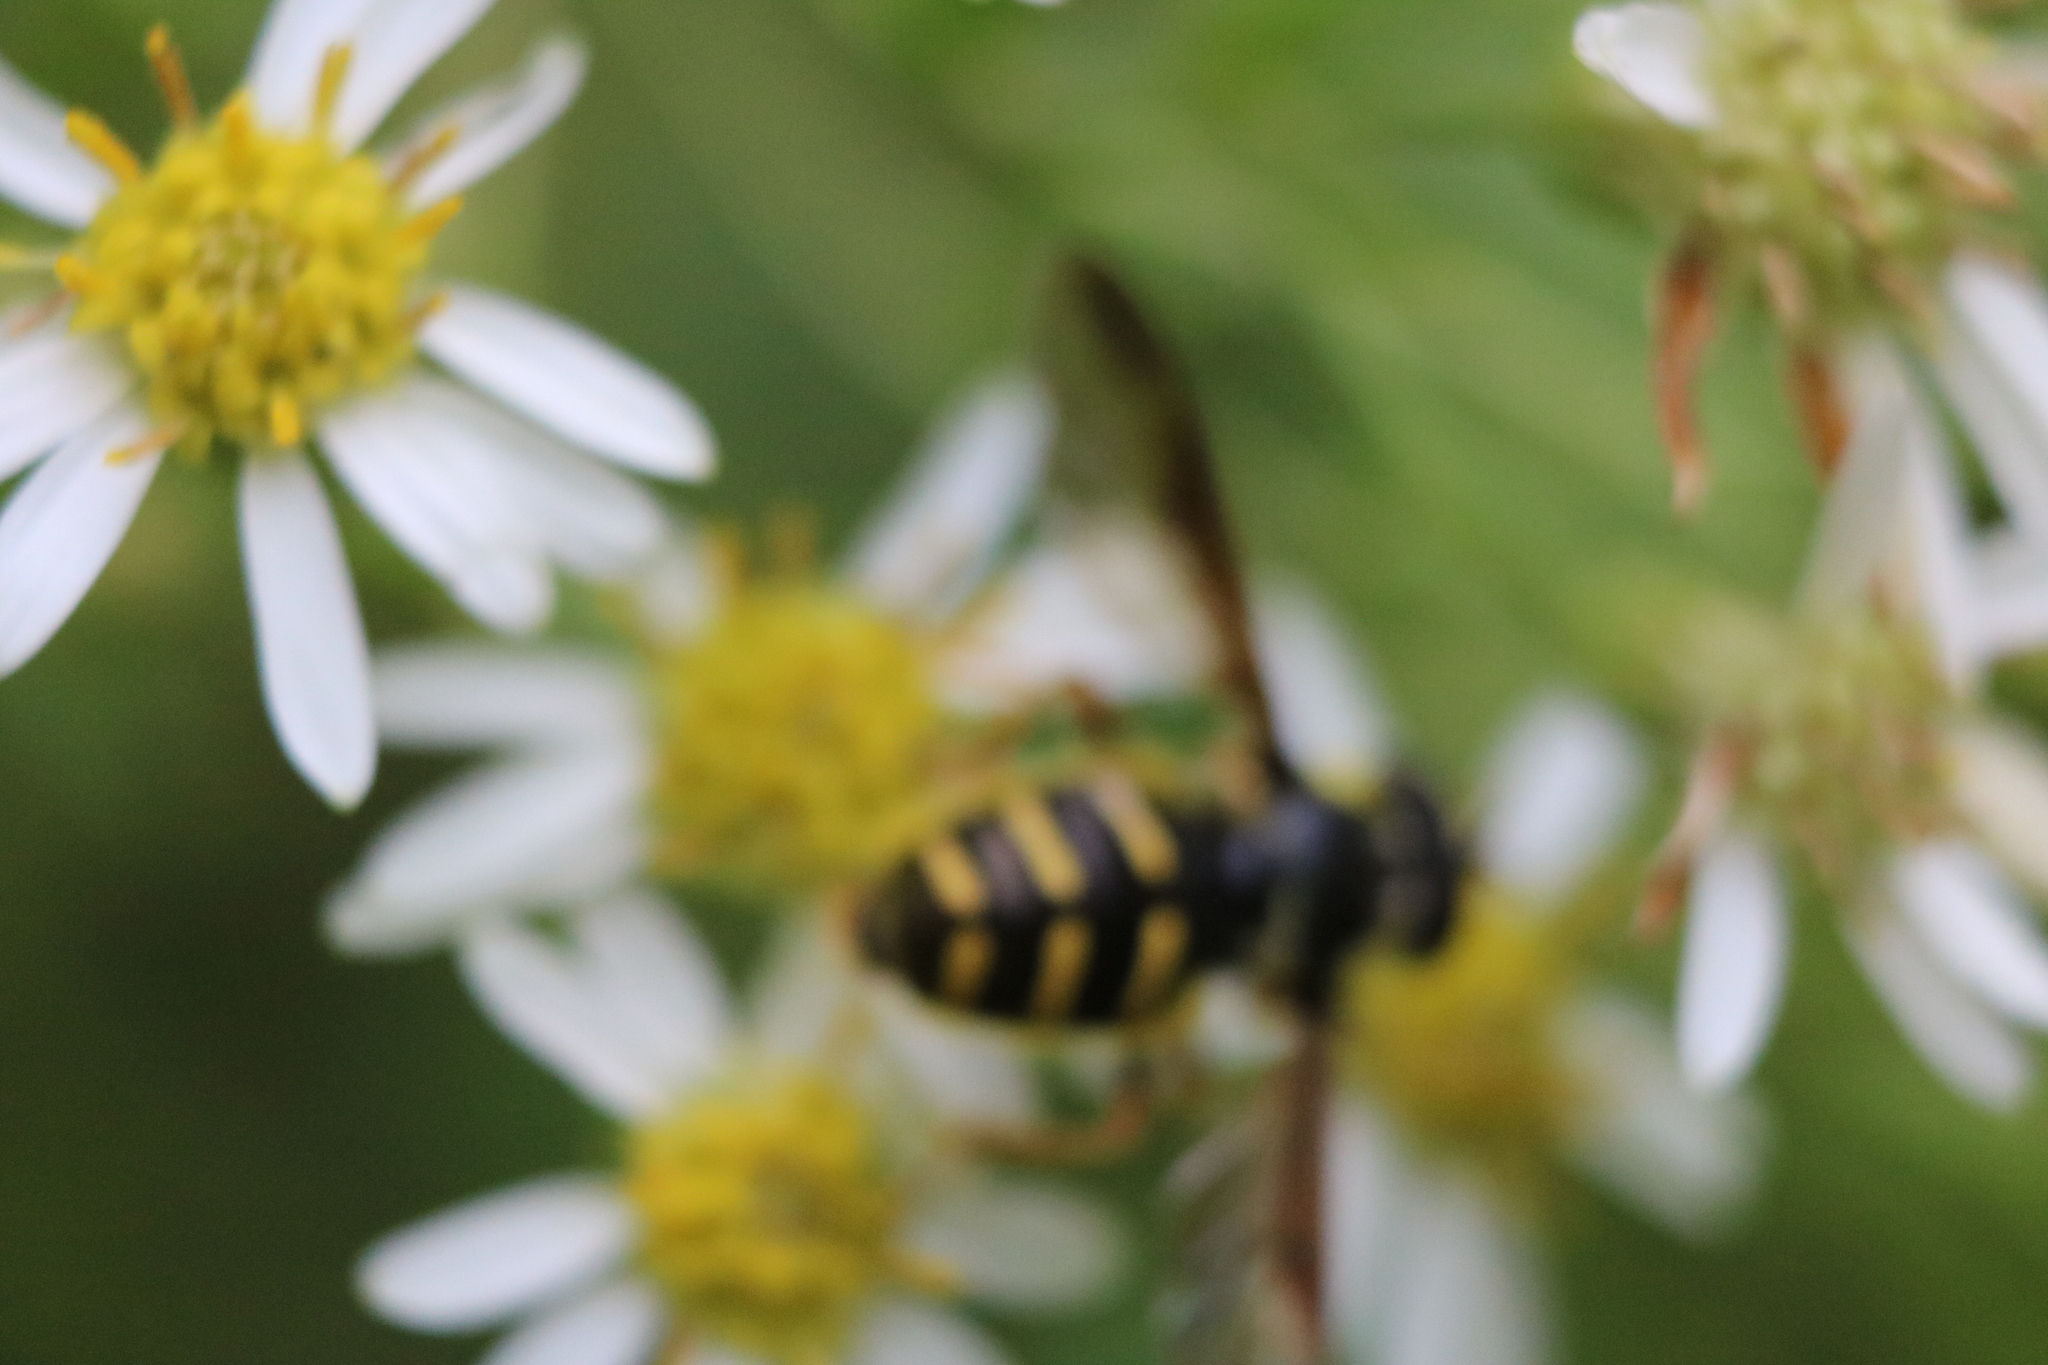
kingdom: Animalia
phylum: Arthropoda
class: Insecta
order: Diptera
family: Syrphidae
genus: Sericomyia
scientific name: Sericomyia chrysotoxoides
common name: Oblique-banded pond fly
